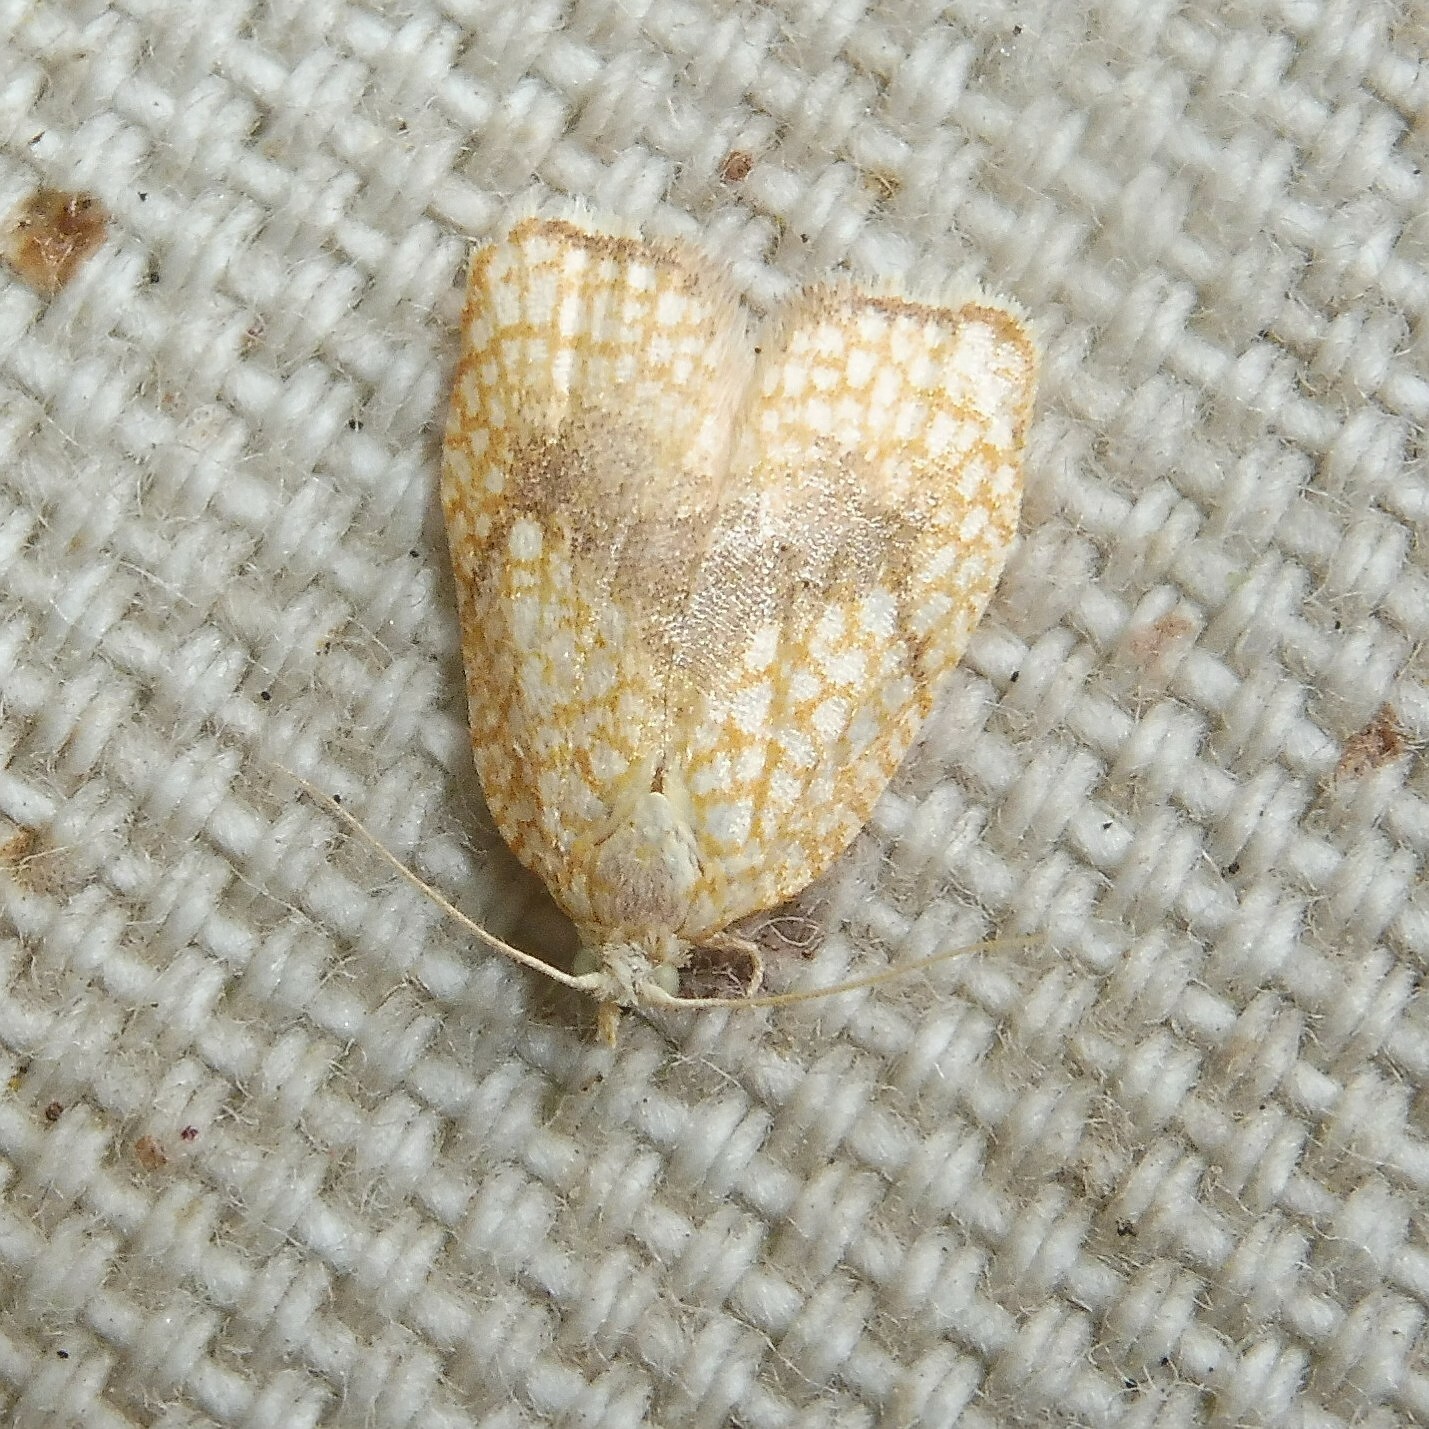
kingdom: Animalia
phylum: Arthropoda
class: Insecta
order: Lepidoptera
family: Tortricidae
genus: Acleris
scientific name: Acleris forsskaleana
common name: Maple button
